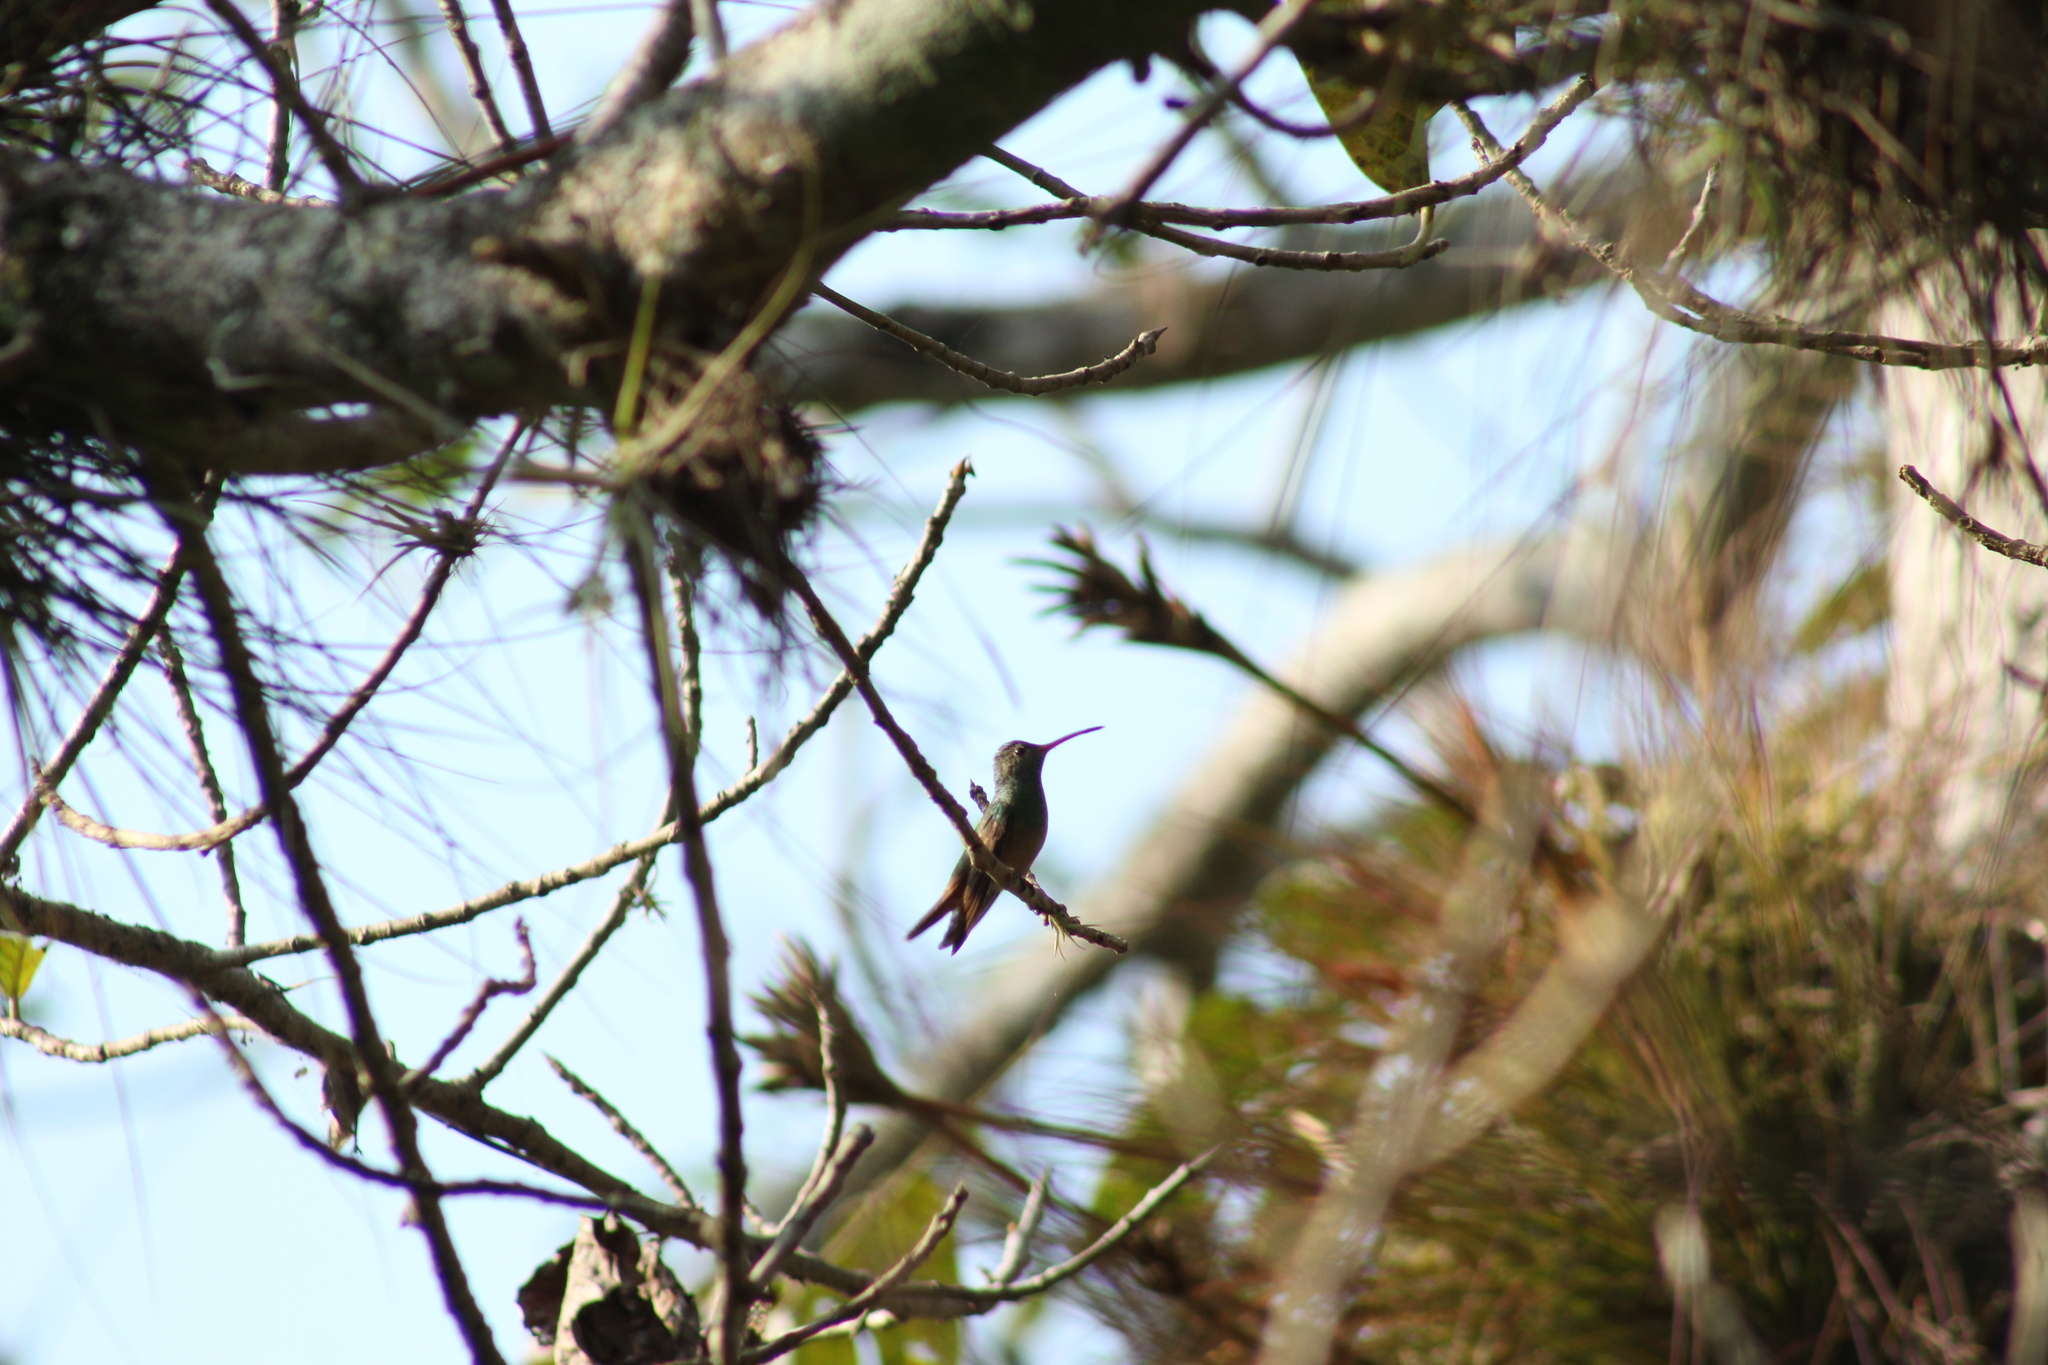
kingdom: Animalia
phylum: Chordata
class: Aves
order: Apodiformes
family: Trochilidae
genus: Amazilia
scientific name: Amazilia yucatanensis
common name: Buff-bellied hummingbird
